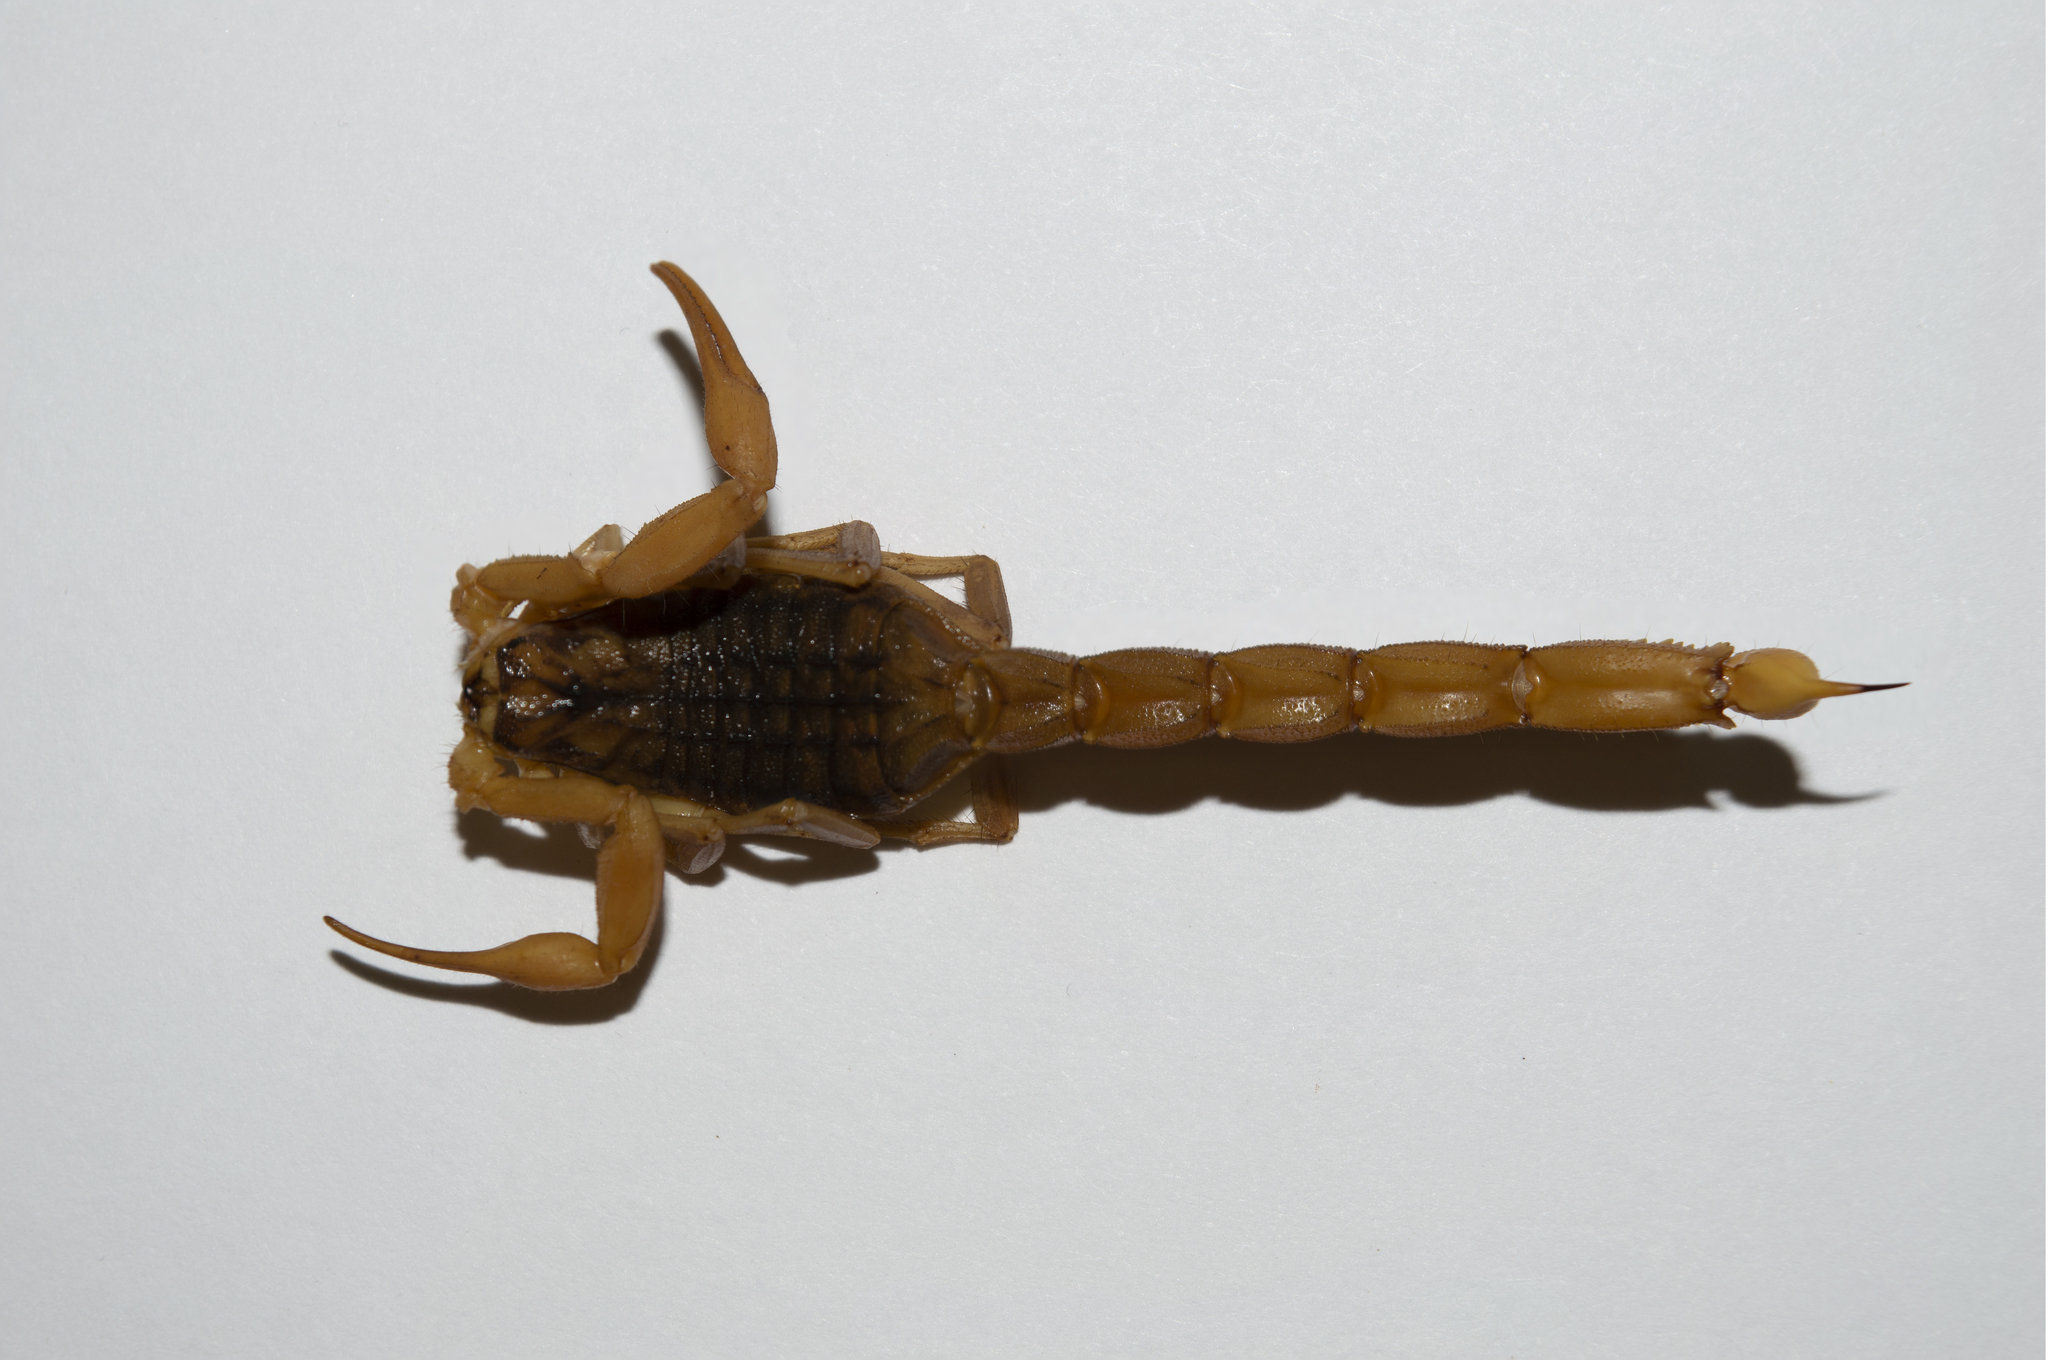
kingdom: Animalia
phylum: Arthropoda
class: Arachnida
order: Scorpiones
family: Buthidae
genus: Aegaeobuthus
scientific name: Aegaeobuthus gibbosus
